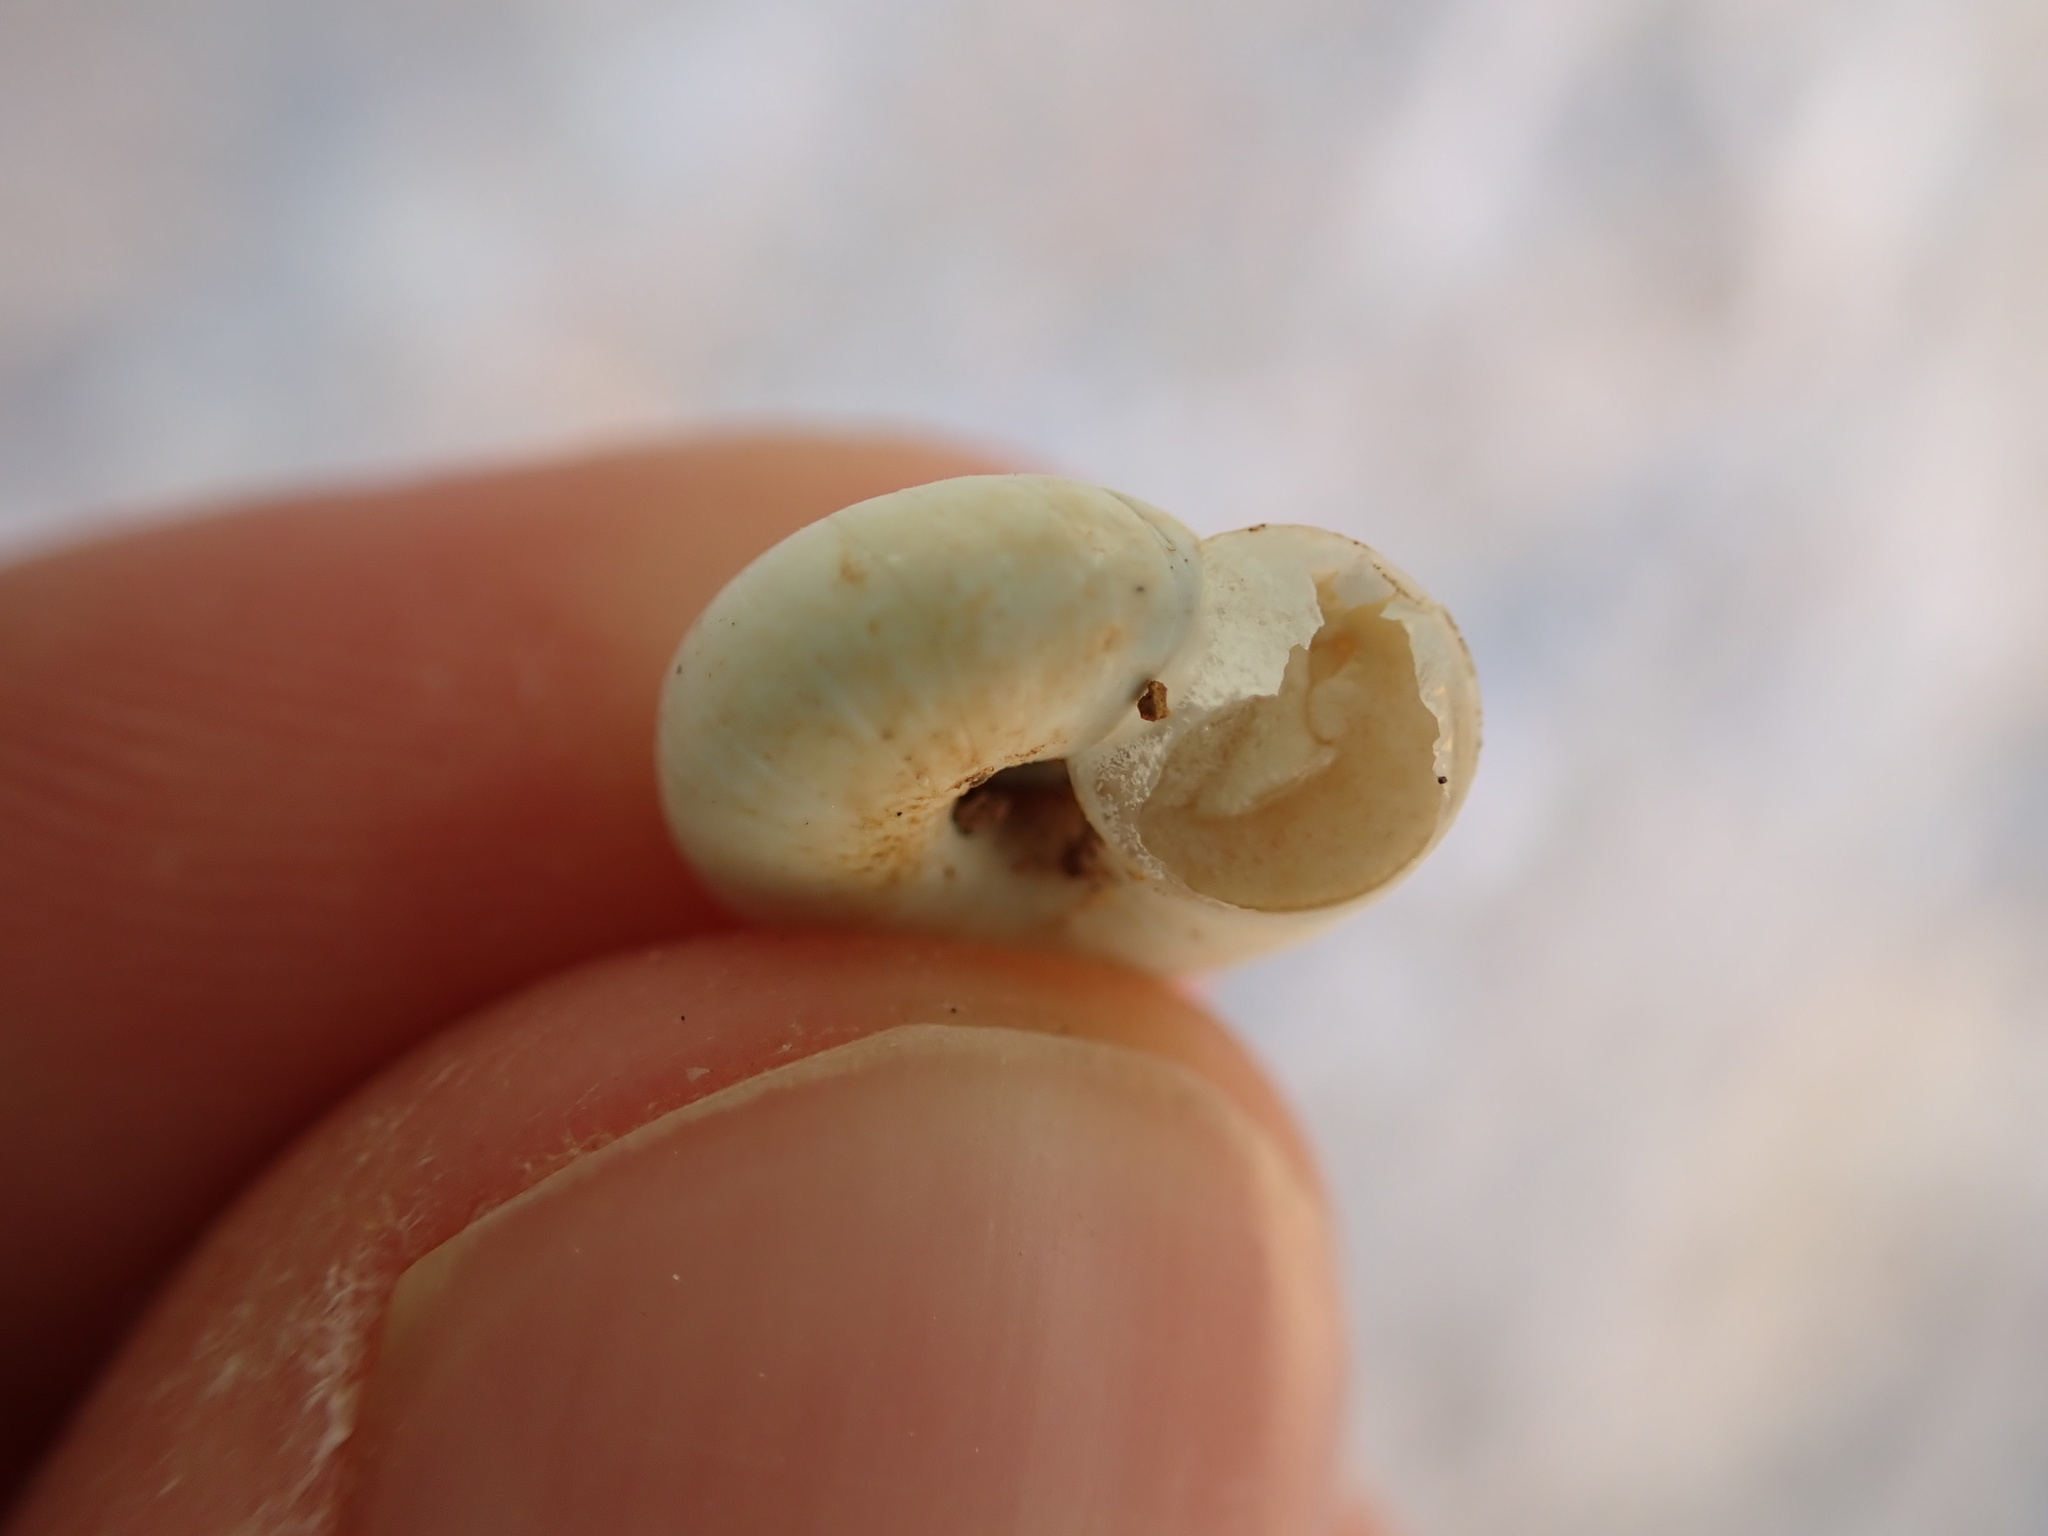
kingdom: Animalia
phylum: Mollusca
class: Gastropoda
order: Stylommatophora
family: Geomitridae
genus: Xeropicta
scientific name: Xeropicta derbentina
